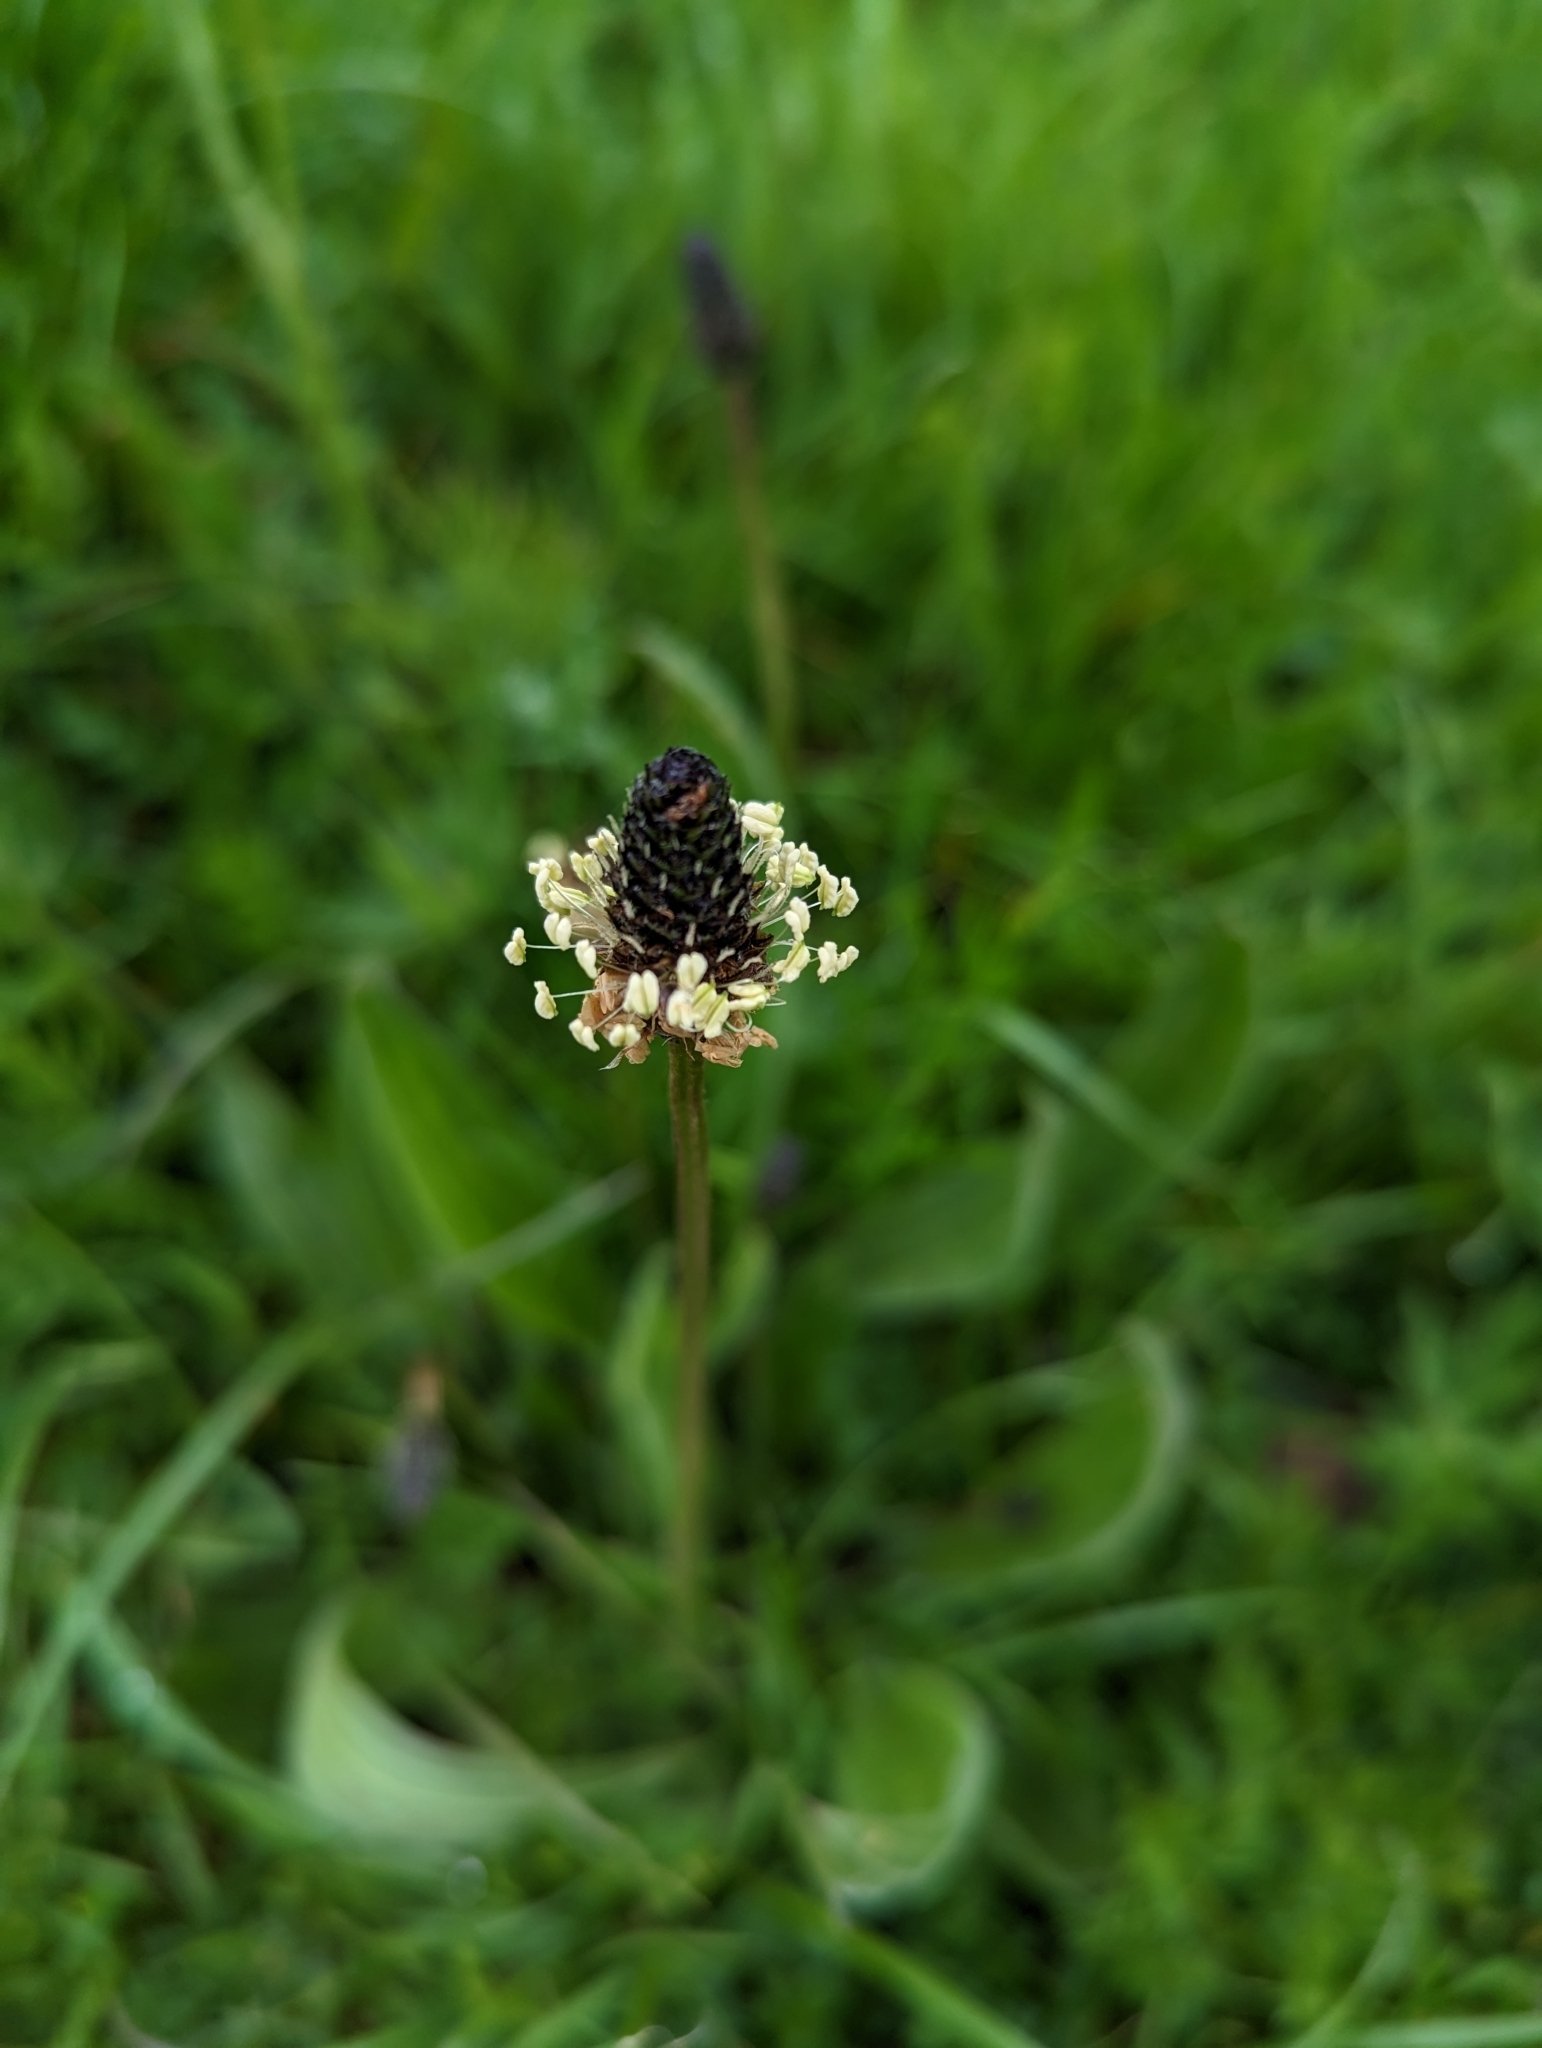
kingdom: Plantae
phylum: Tracheophyta
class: Magnoliopsida
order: Lamiales
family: Plantaginaceae
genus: Plantago
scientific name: Plantago lanceolata
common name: Ribwort plantain
